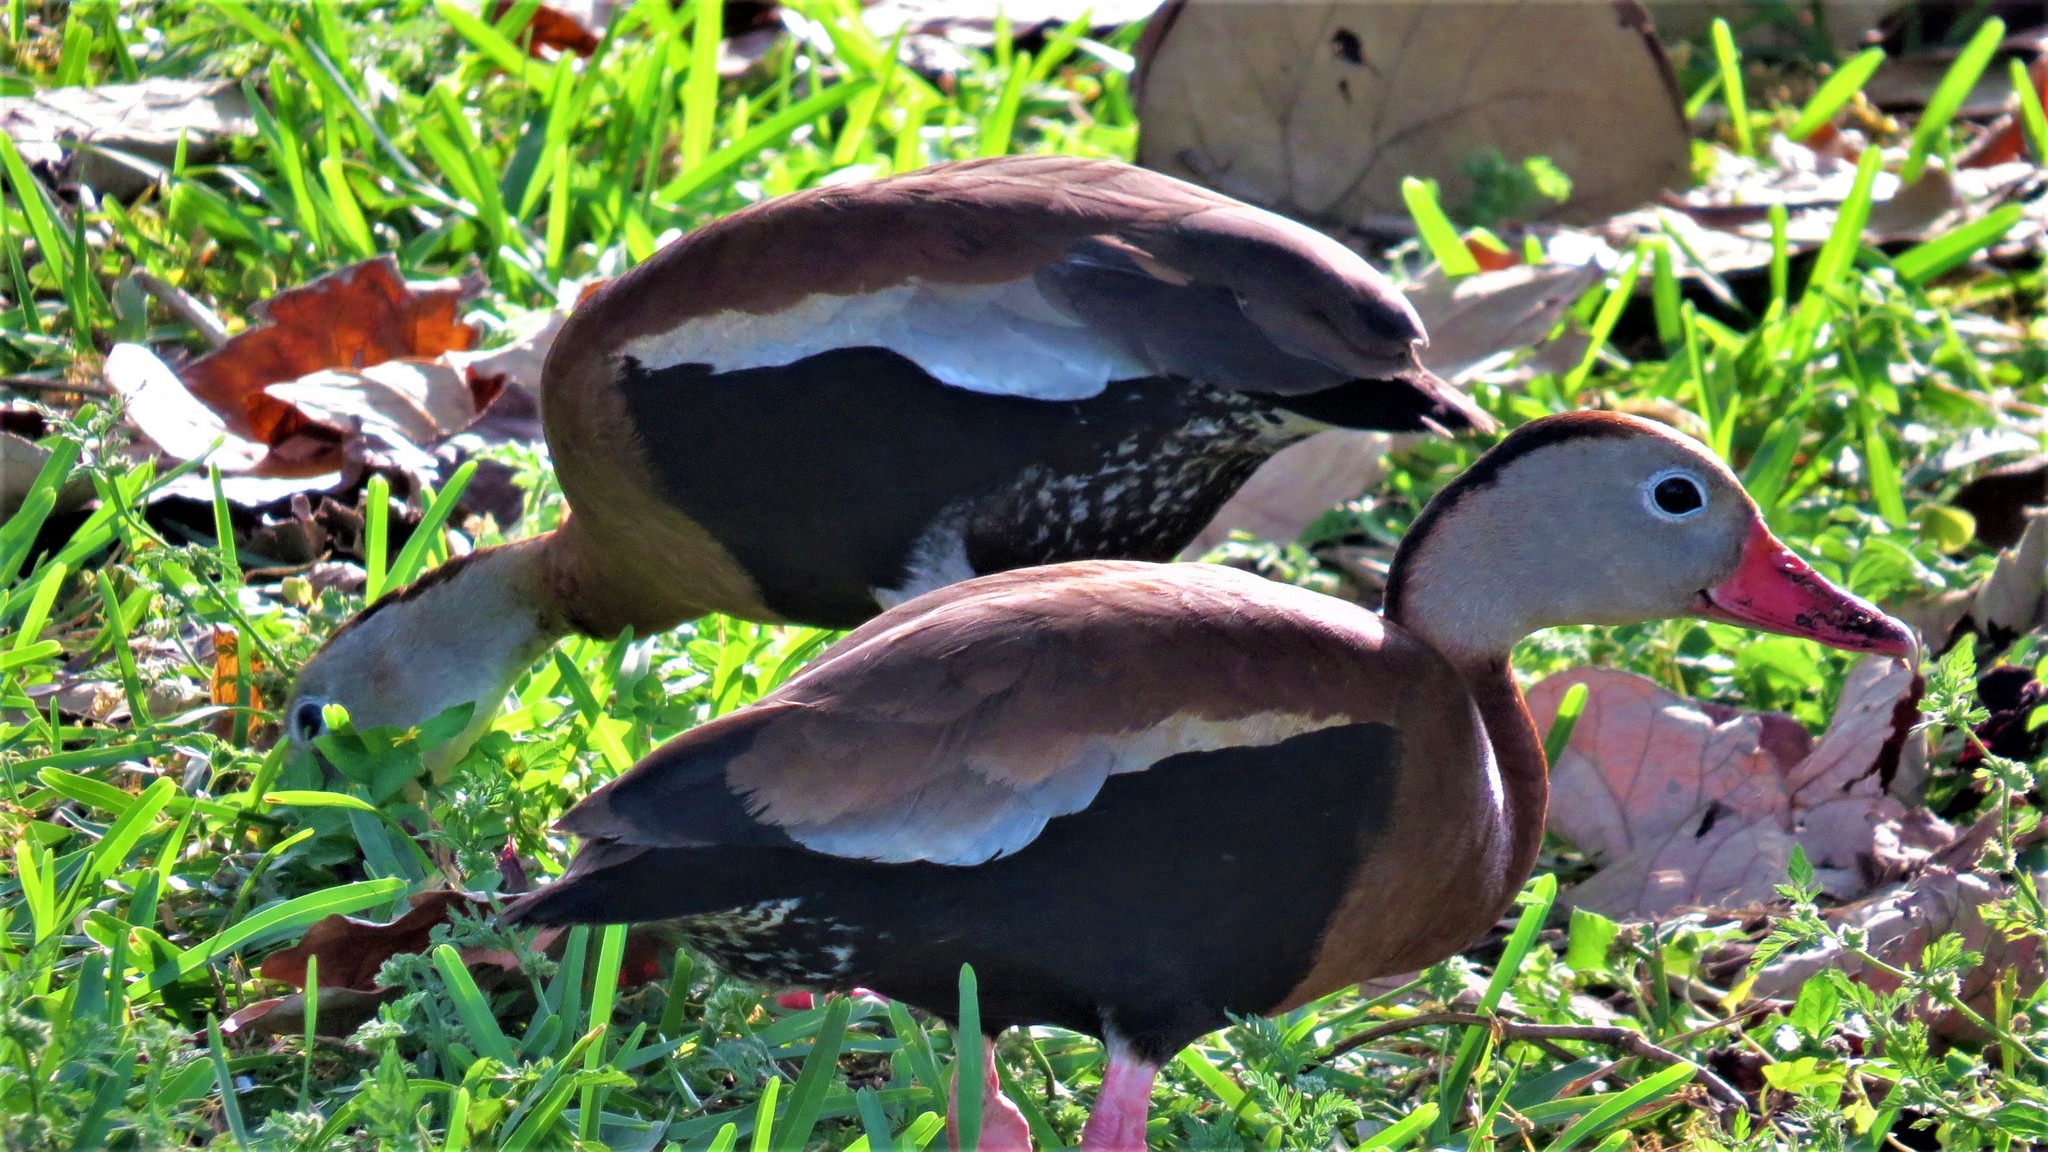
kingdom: Animalia
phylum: Chordata
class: Aves
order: Anseriformes
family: Anatidae
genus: Dendrocygna
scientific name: Dendrocygna autumnalis
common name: Black-bellied whistling duck
